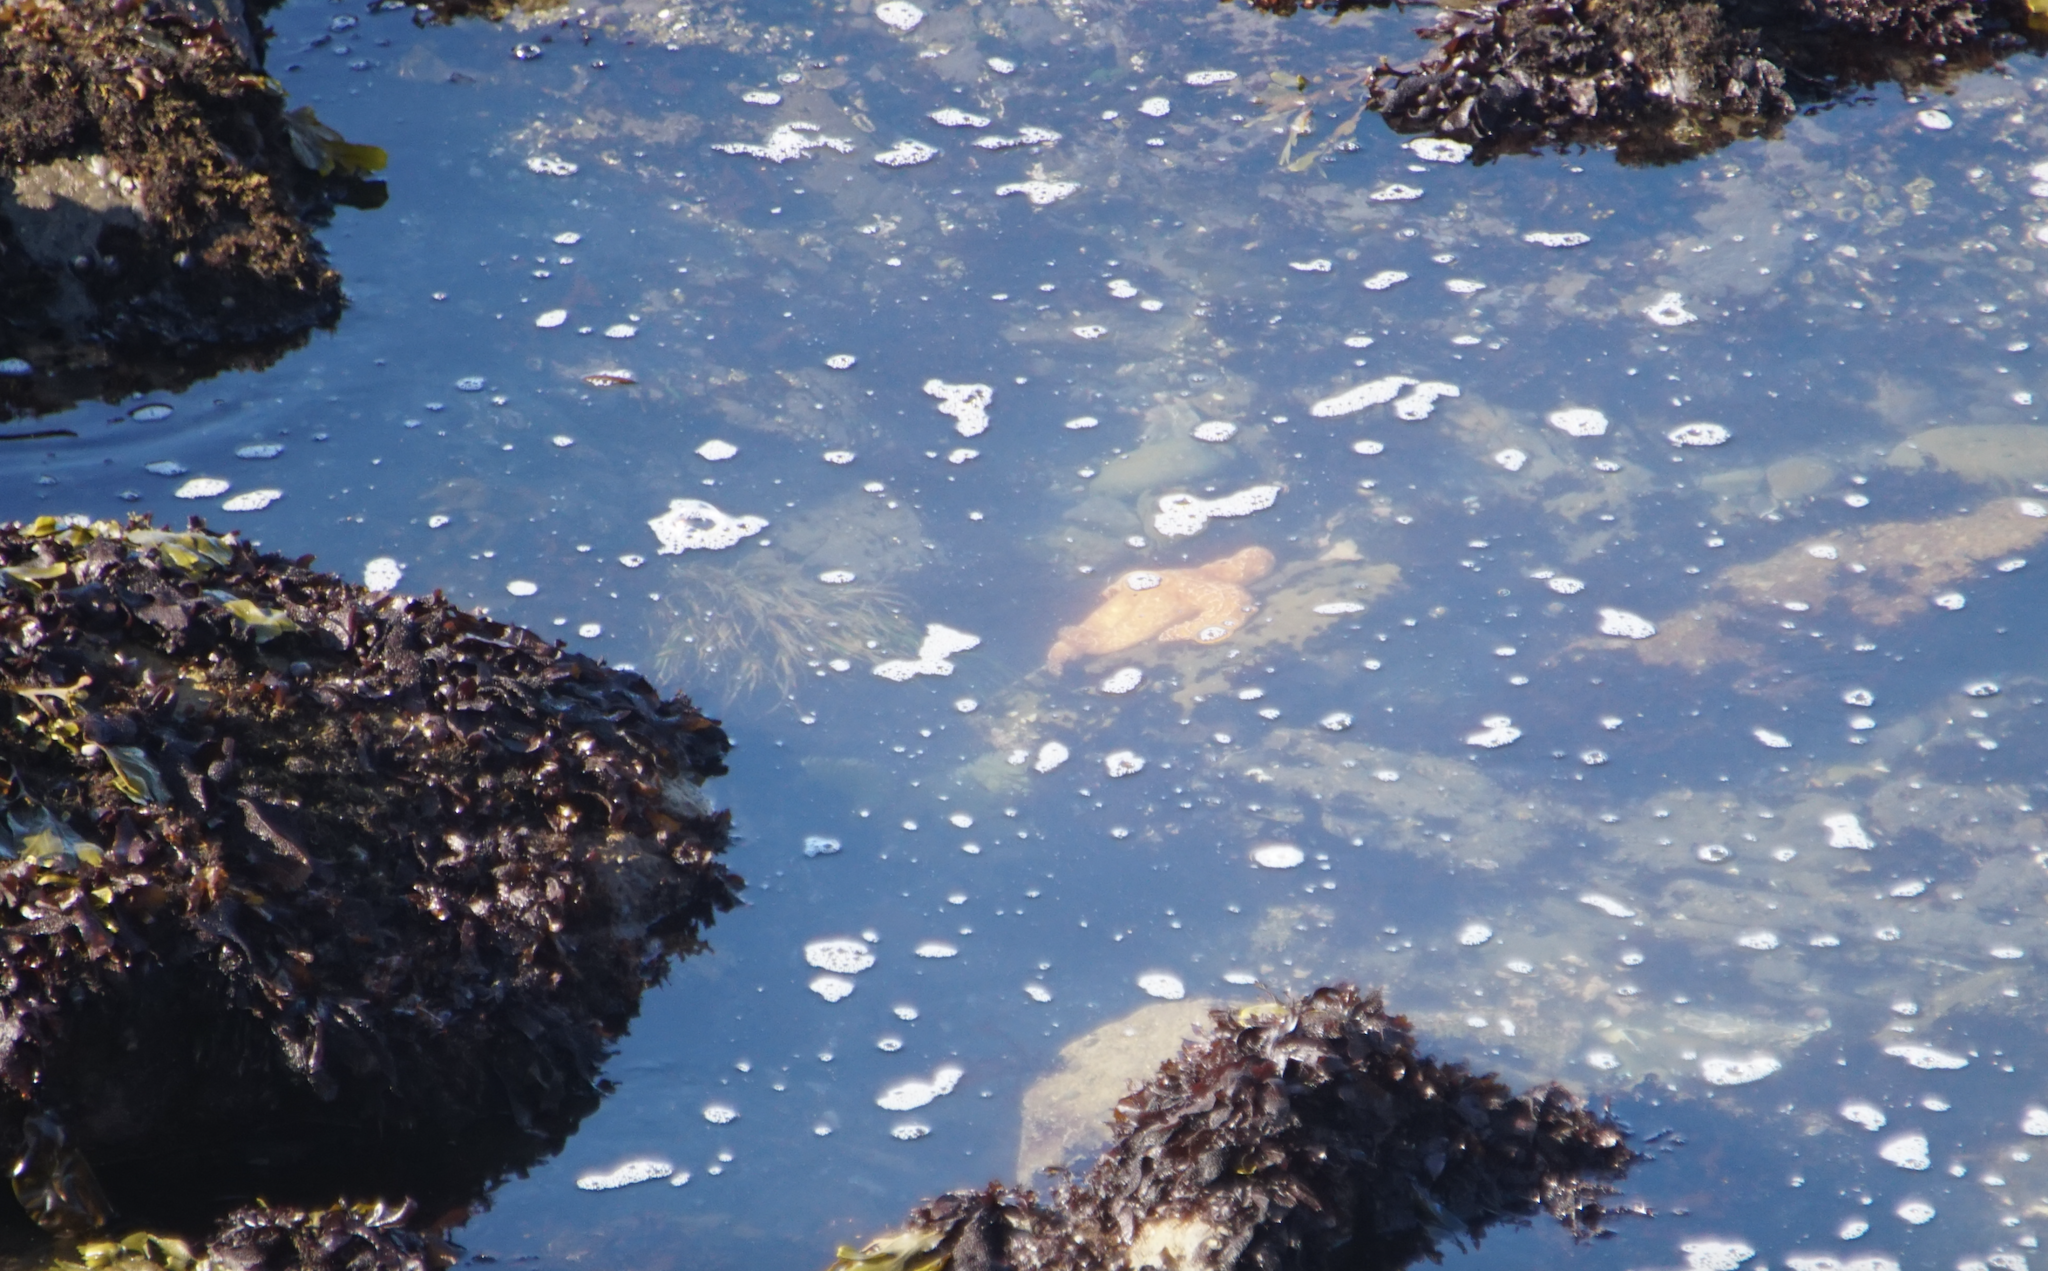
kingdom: Animalia
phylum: Echinodermata
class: Asteroidea
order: Forcipulatida
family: Asteriidae
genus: Pisaster
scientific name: Pisaster ochraceus
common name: Ochre stars
